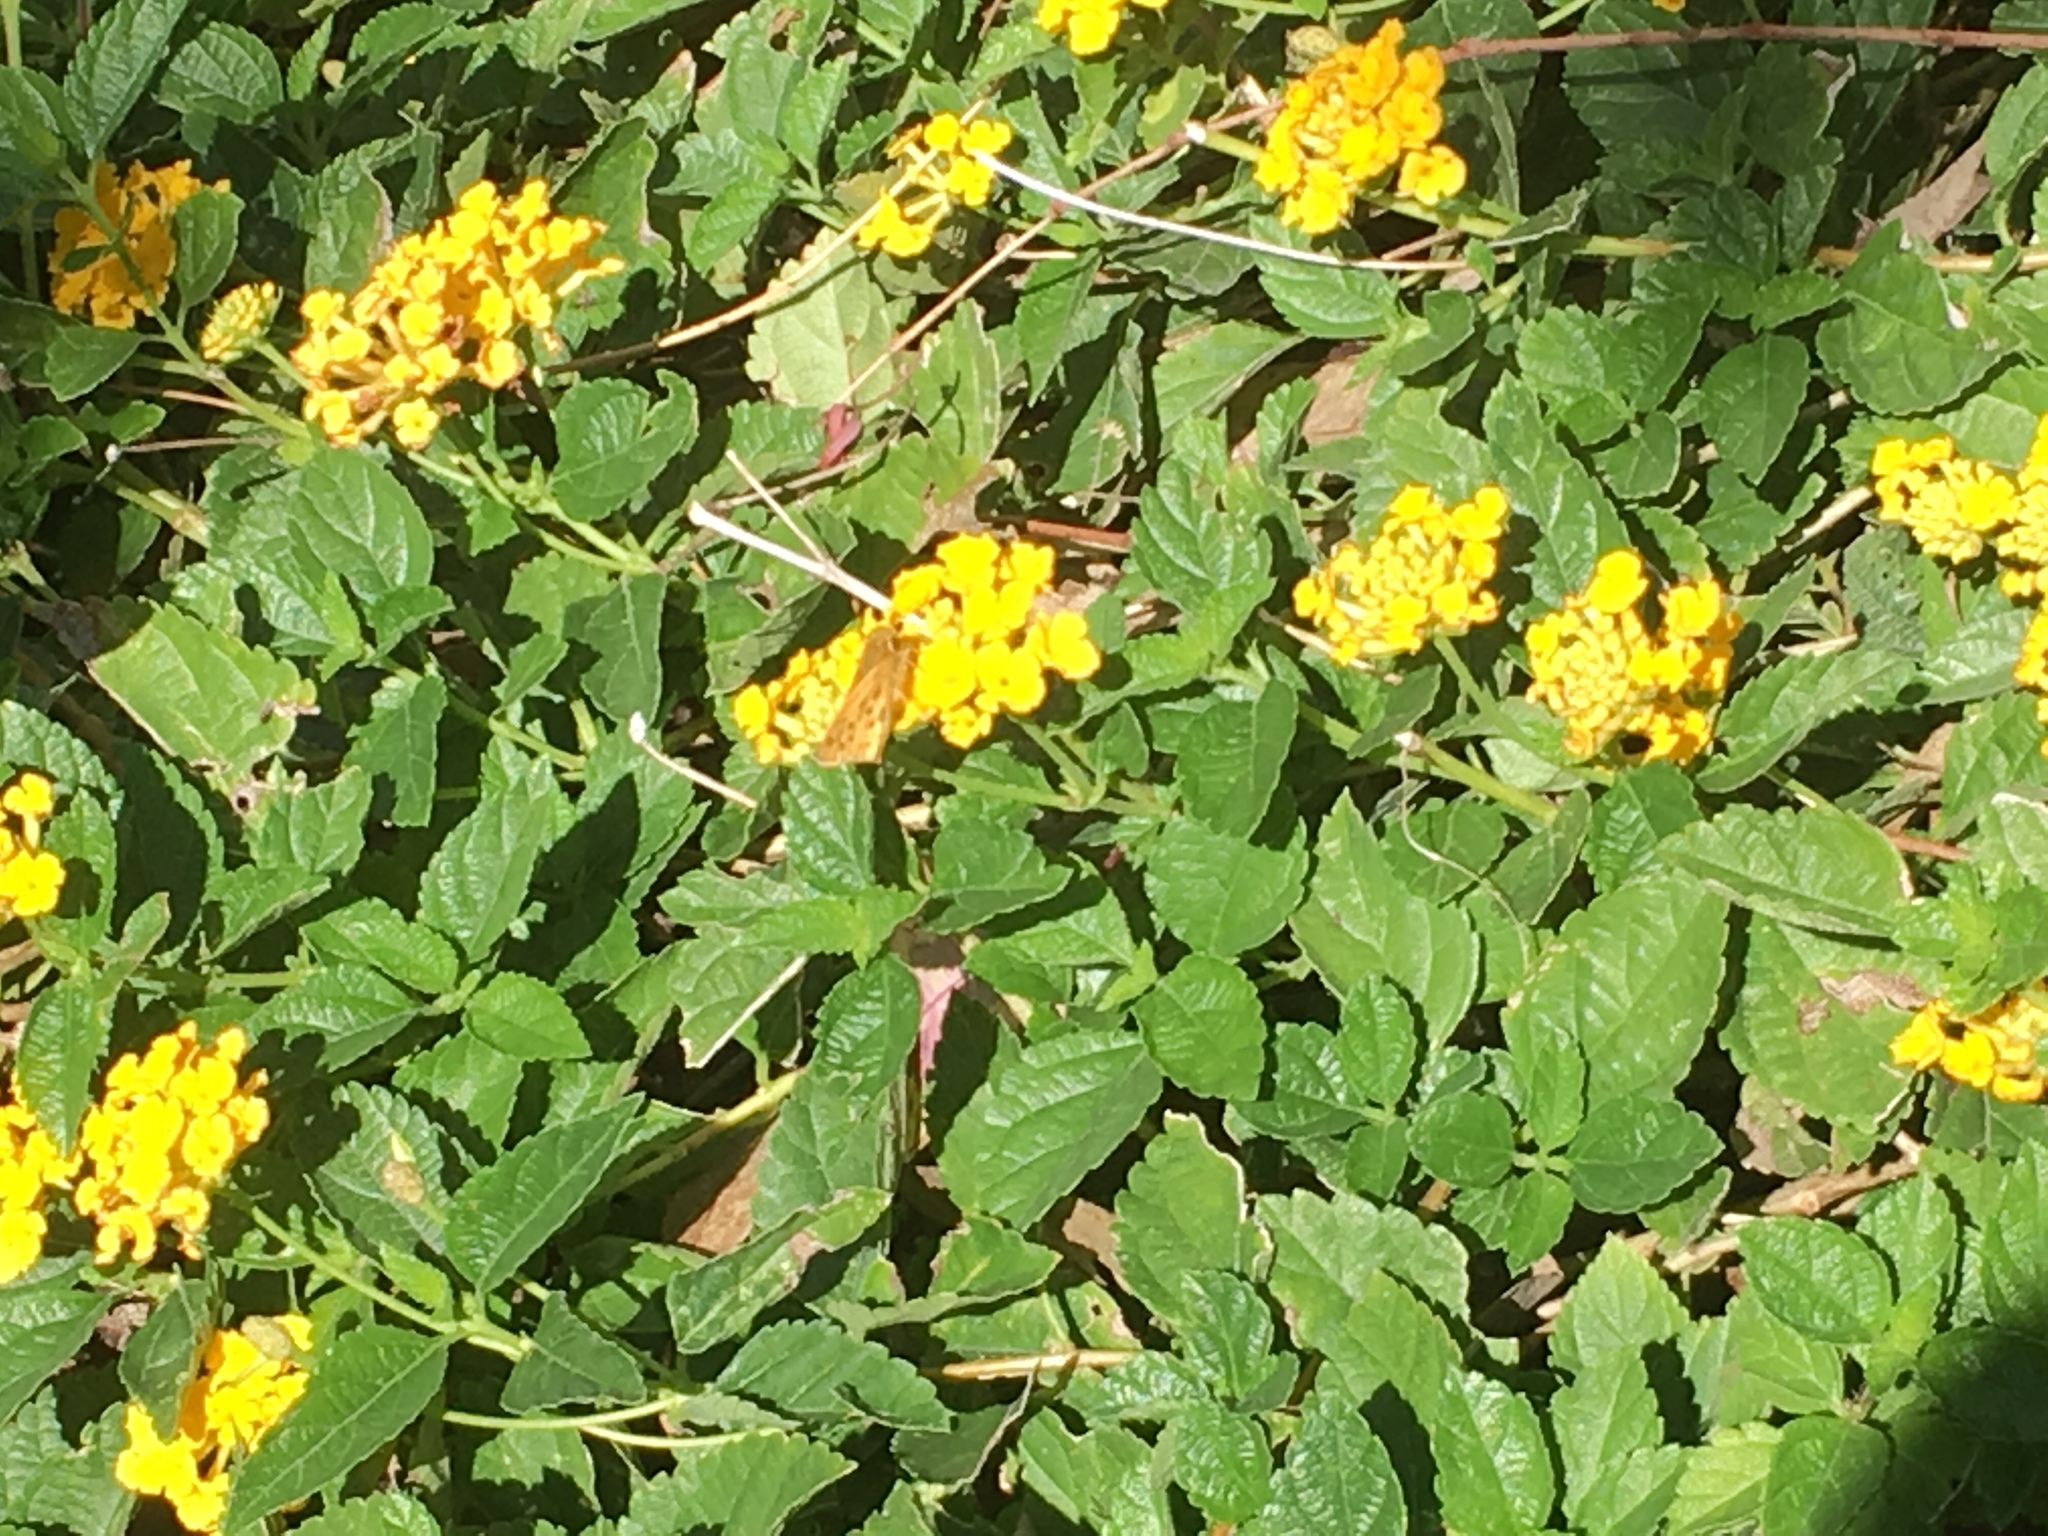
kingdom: Animalia
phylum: Arthropoda
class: Insecta
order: Lepidoptera
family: Hesperiidae
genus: Hylephila
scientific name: Hylephila phyleus
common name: Fiery skipper
